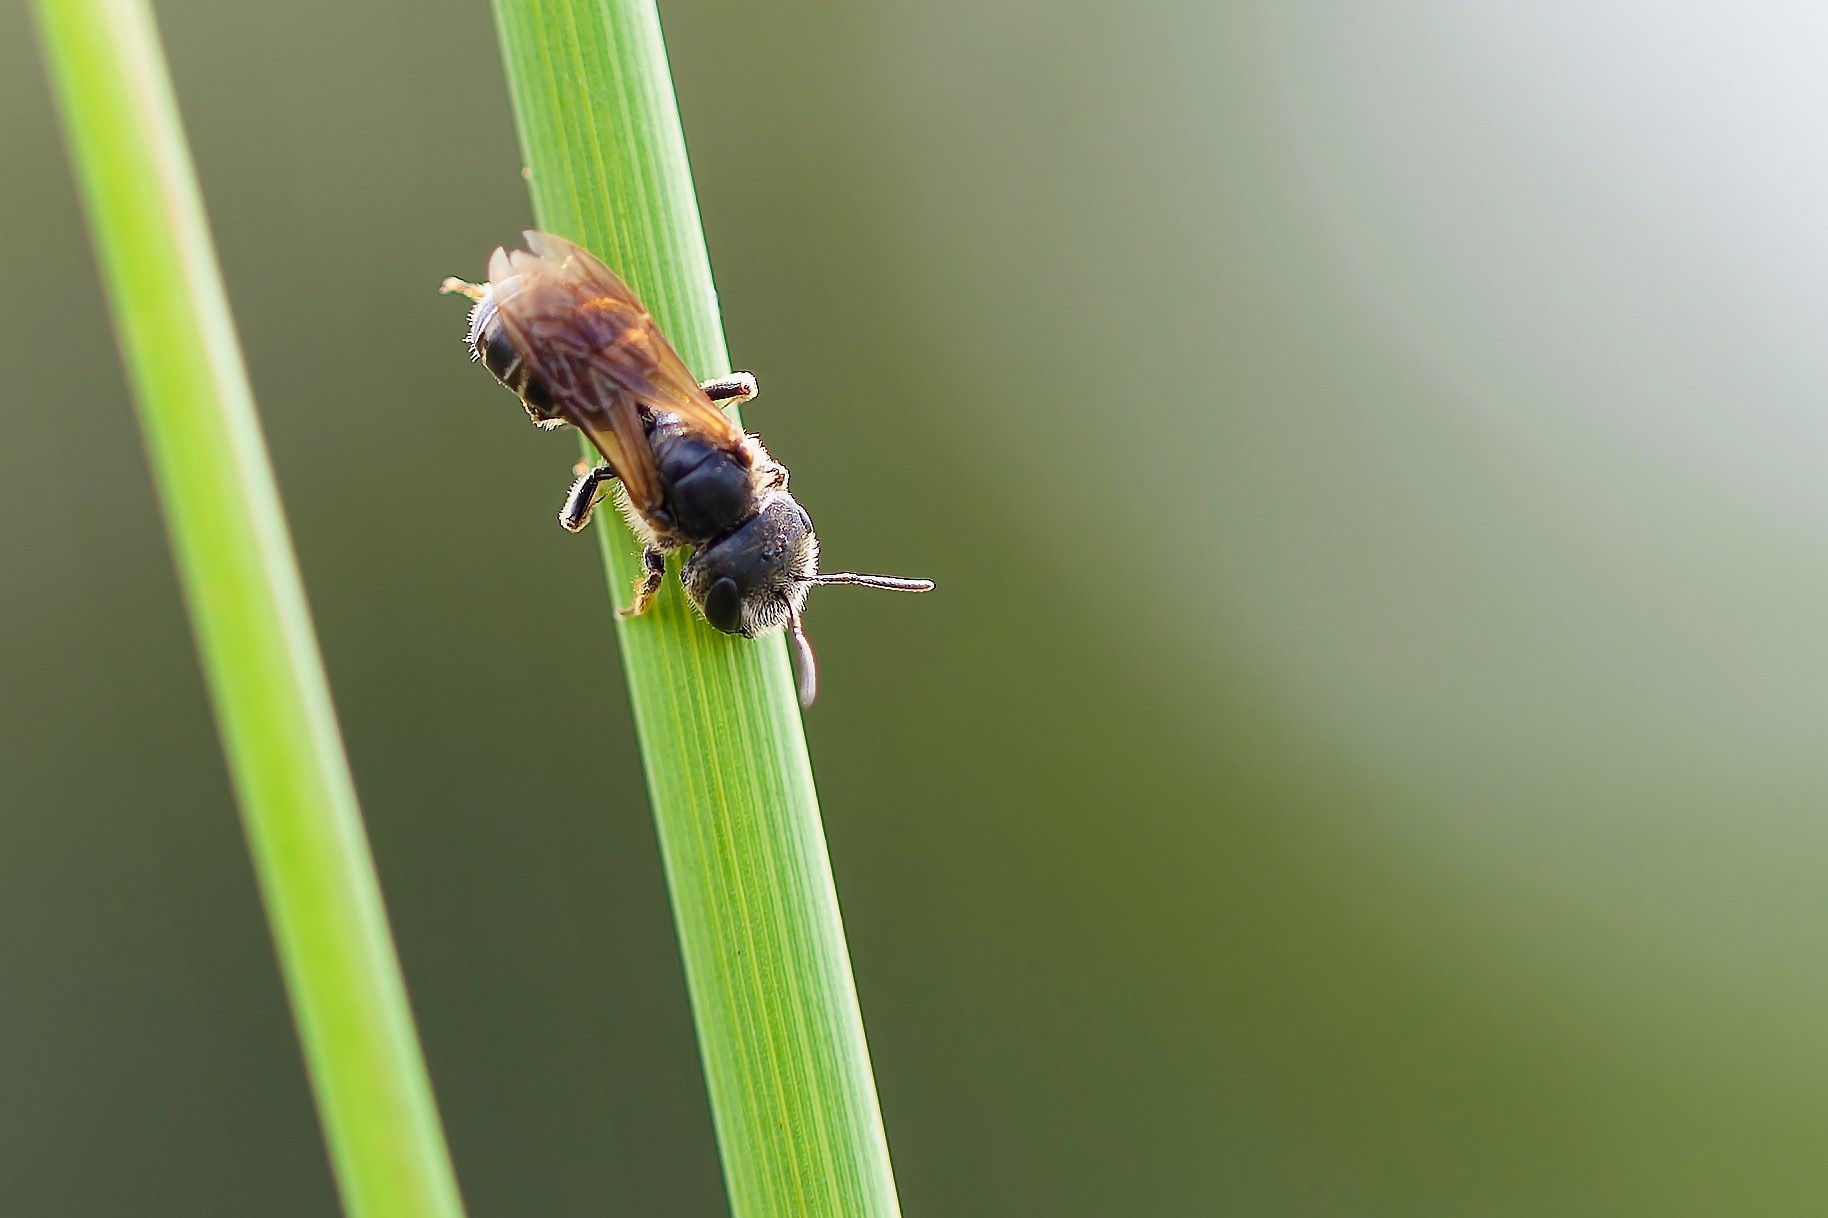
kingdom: Animalia
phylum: Arthropoda
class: Insecta
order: Hymenoptera
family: Halictidae
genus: Halictus
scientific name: Halictus poeyi
